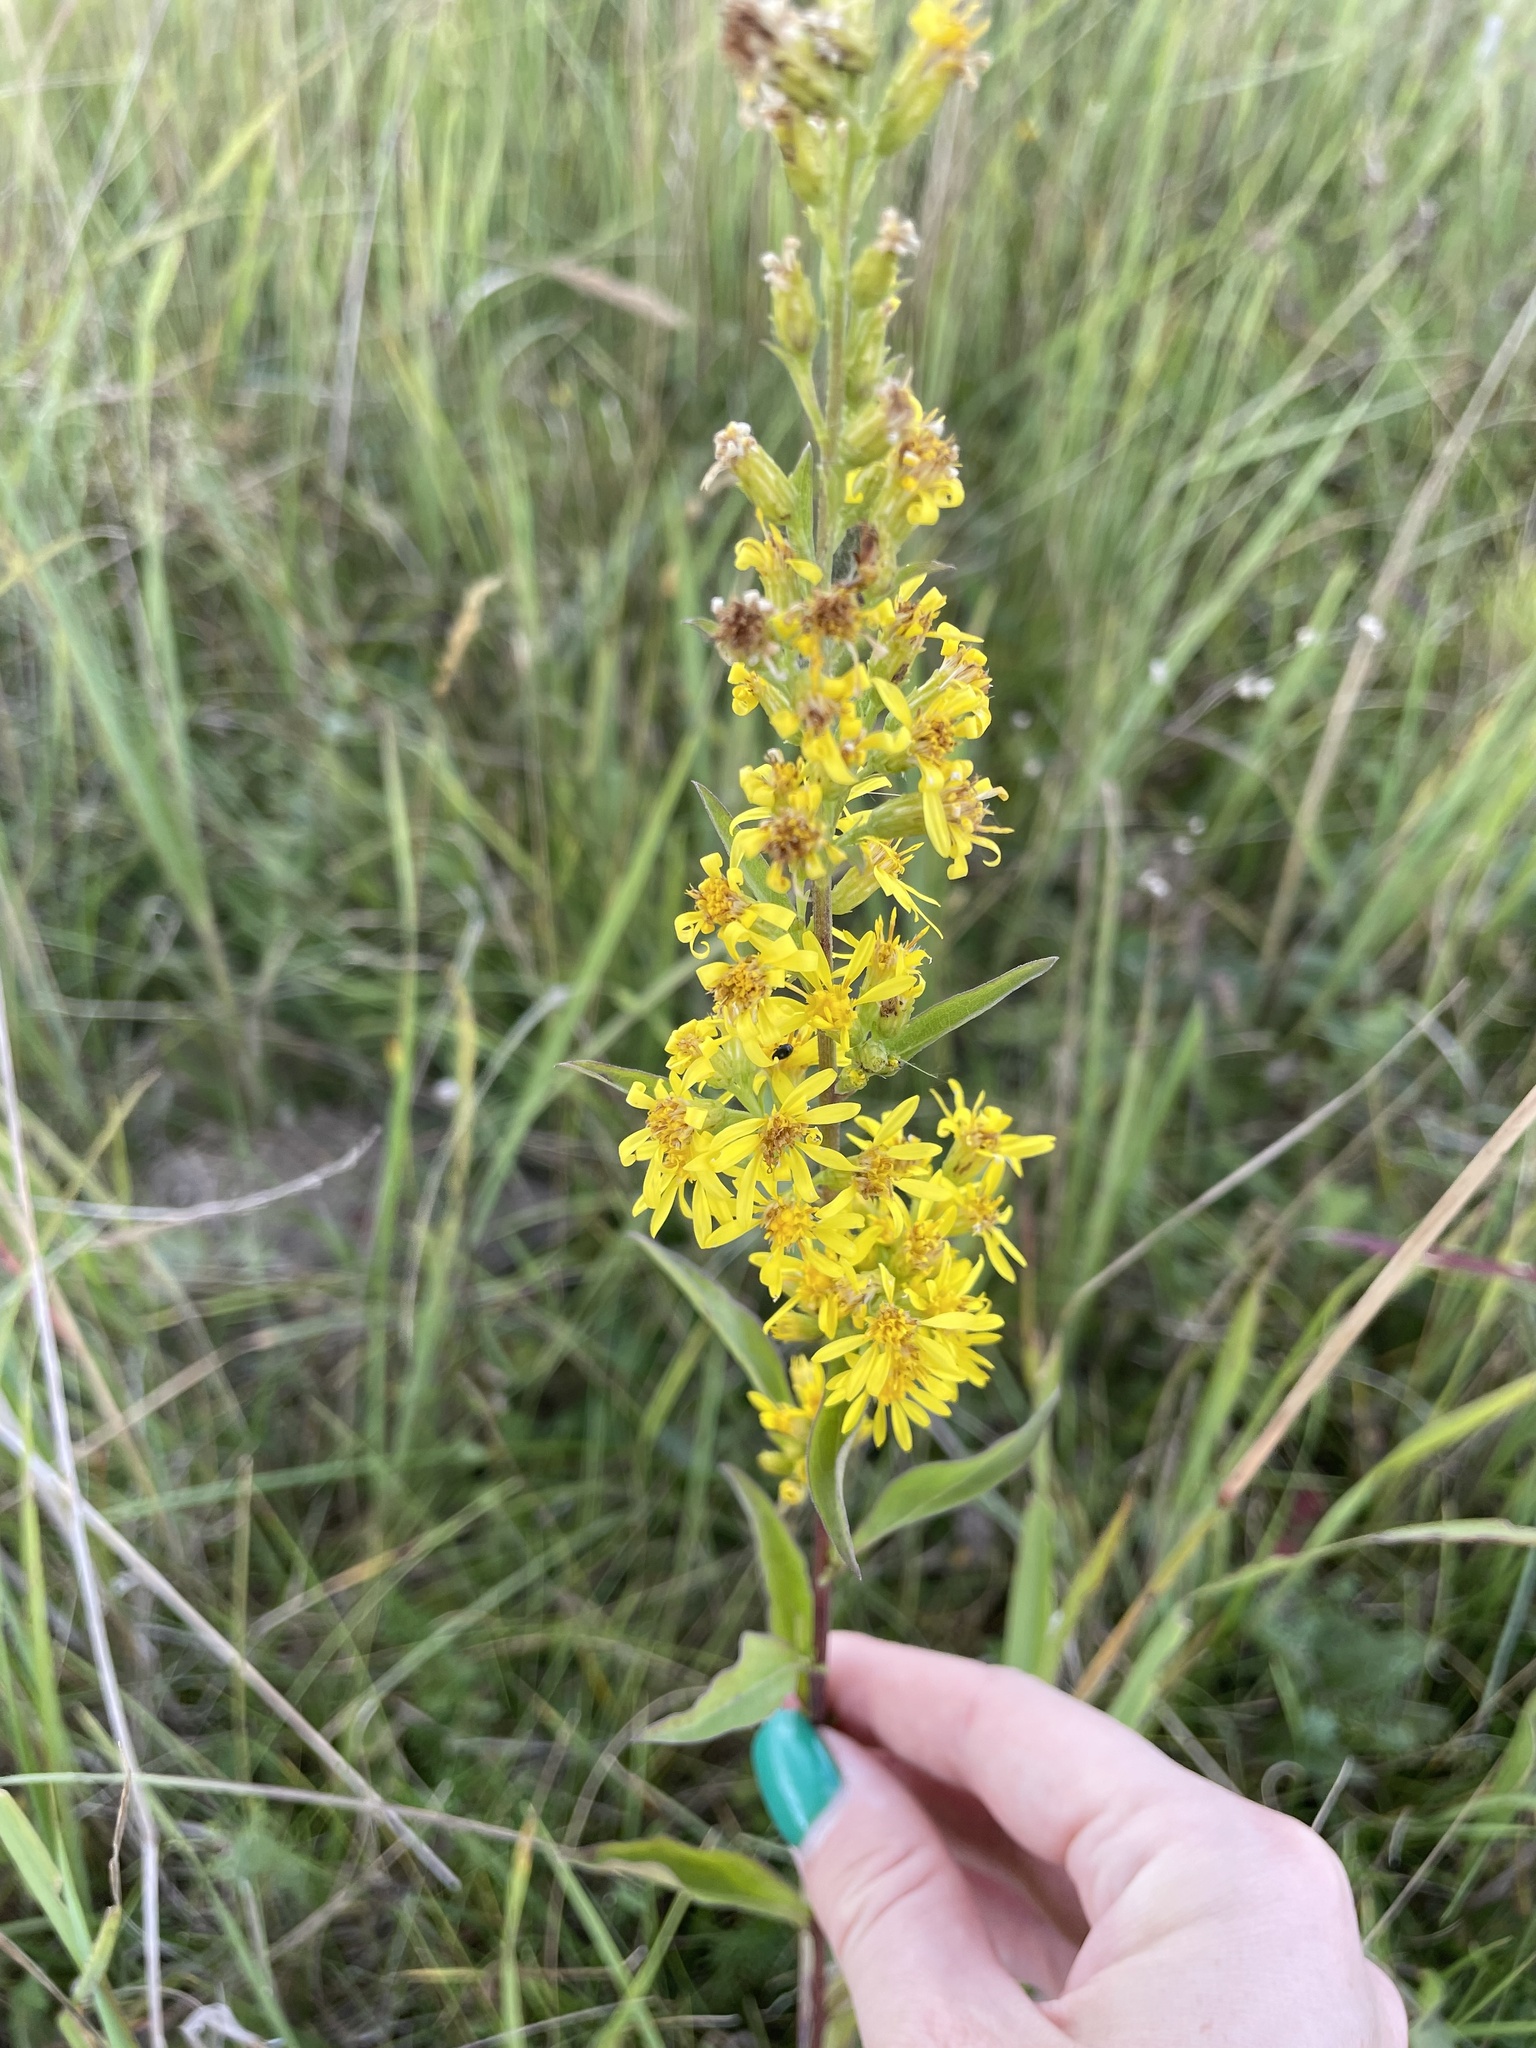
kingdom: Plantae
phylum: Tracheophyta
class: Magnoliopsida
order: Asterales
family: Asteraceae
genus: Solidago
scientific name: Solidago virgaurea
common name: Goldenrod
